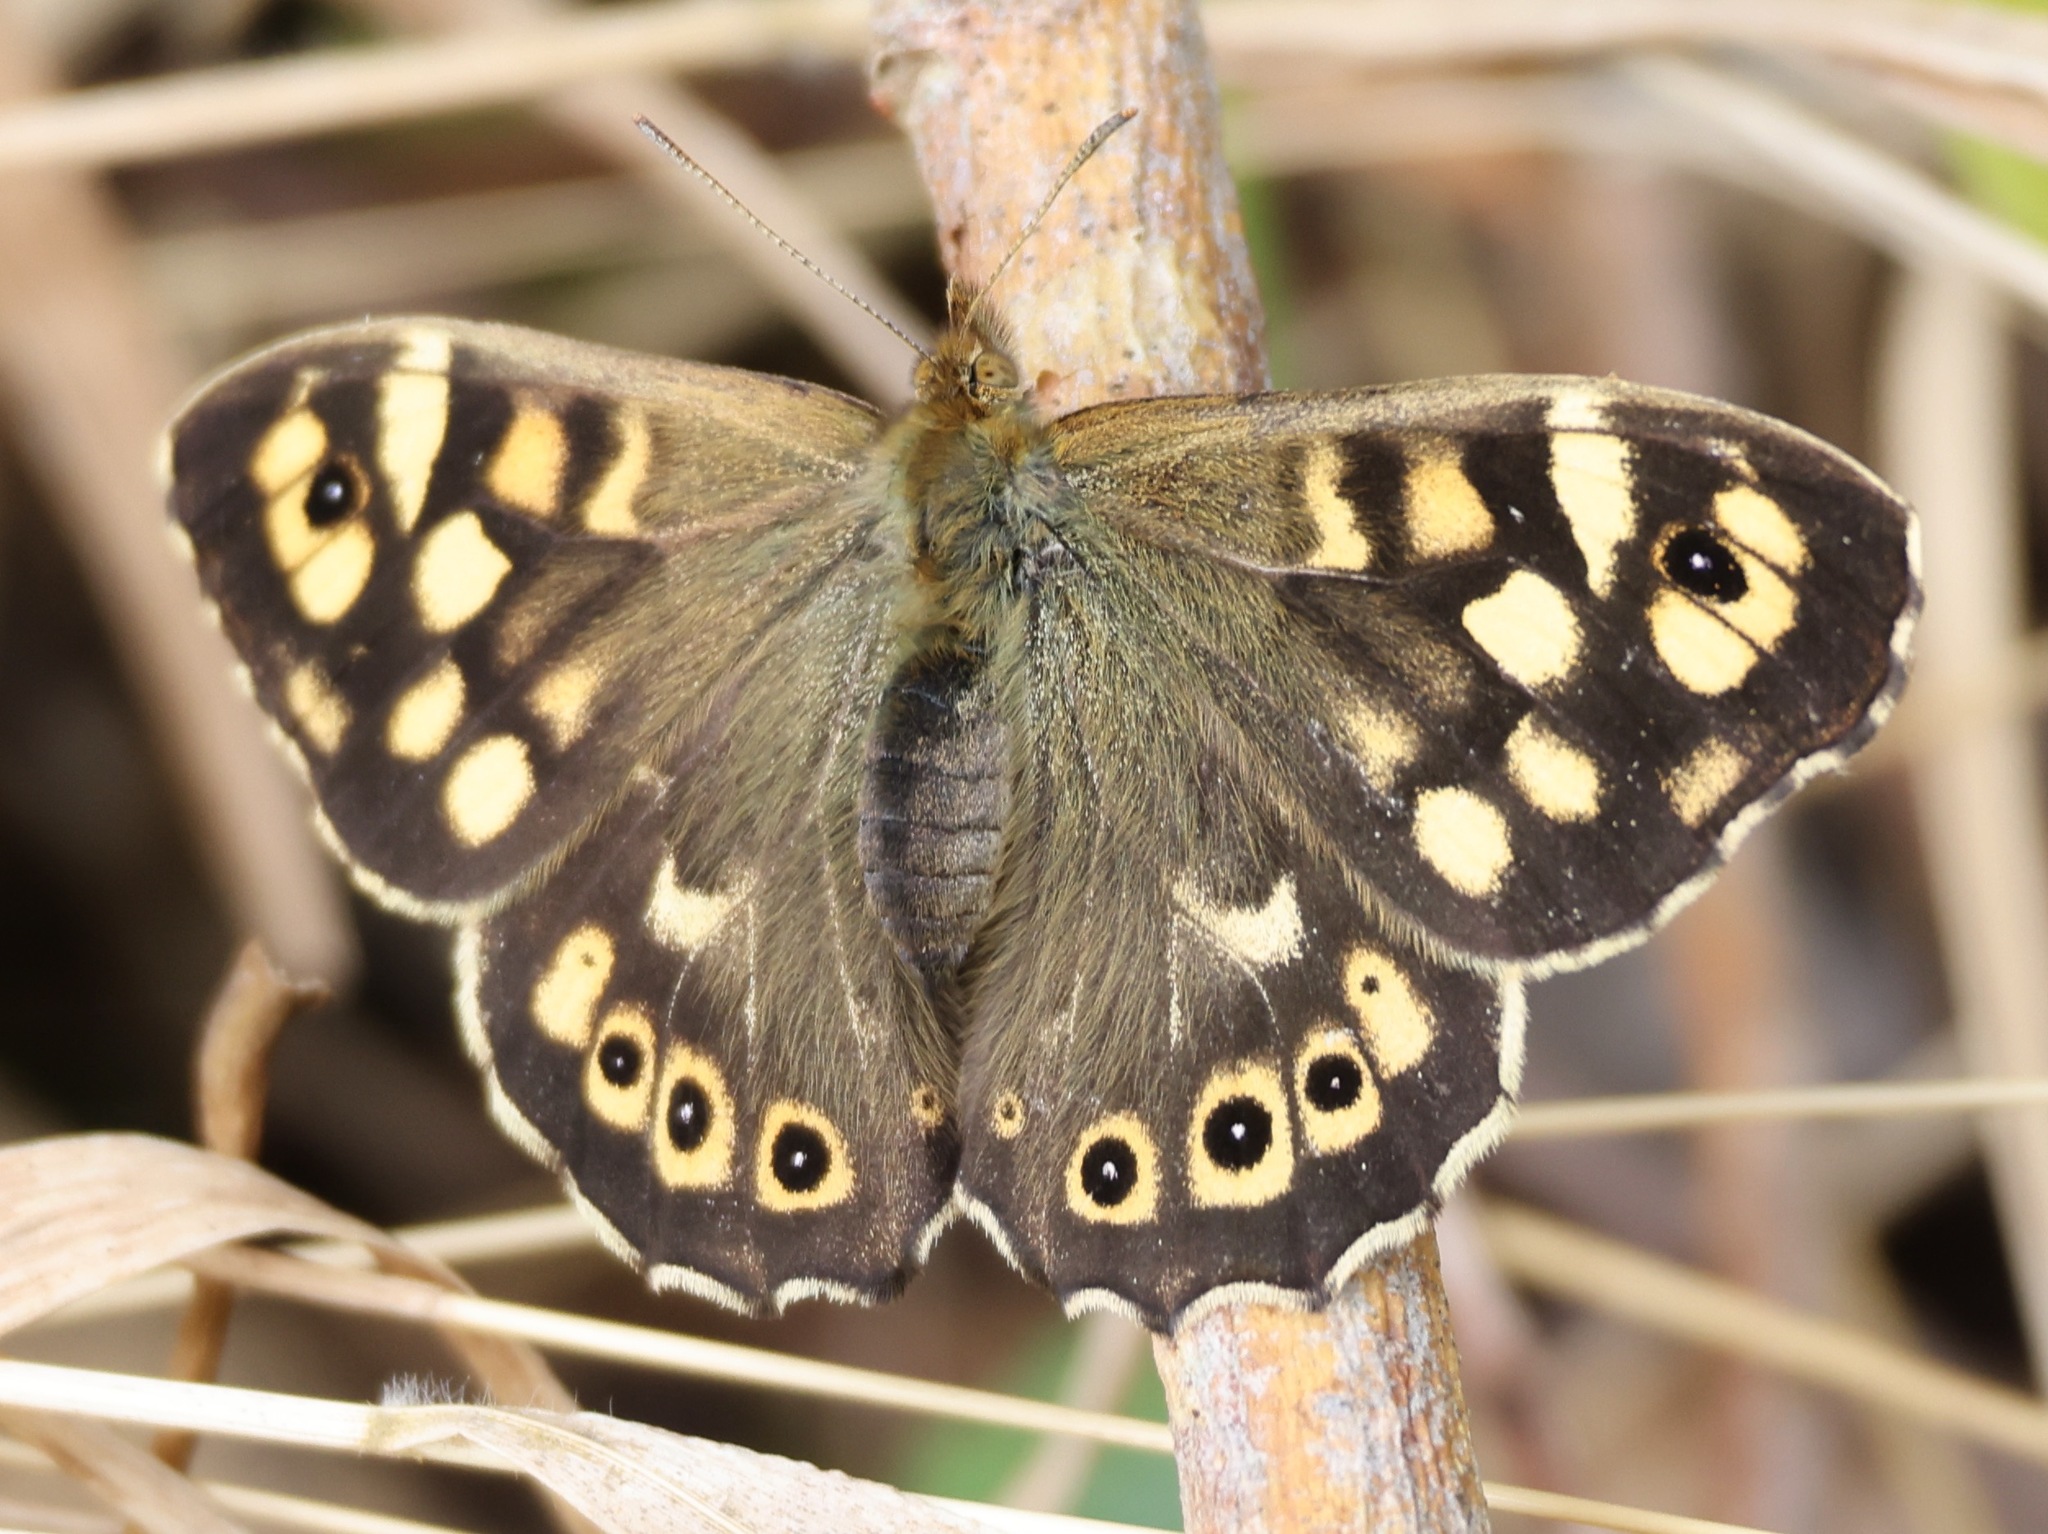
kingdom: Animalia
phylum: Arthropoda
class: Insecta
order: Lepidoptera
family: Nymphalidae
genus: Pararge
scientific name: Pararge aegeria
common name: Speckled wood
